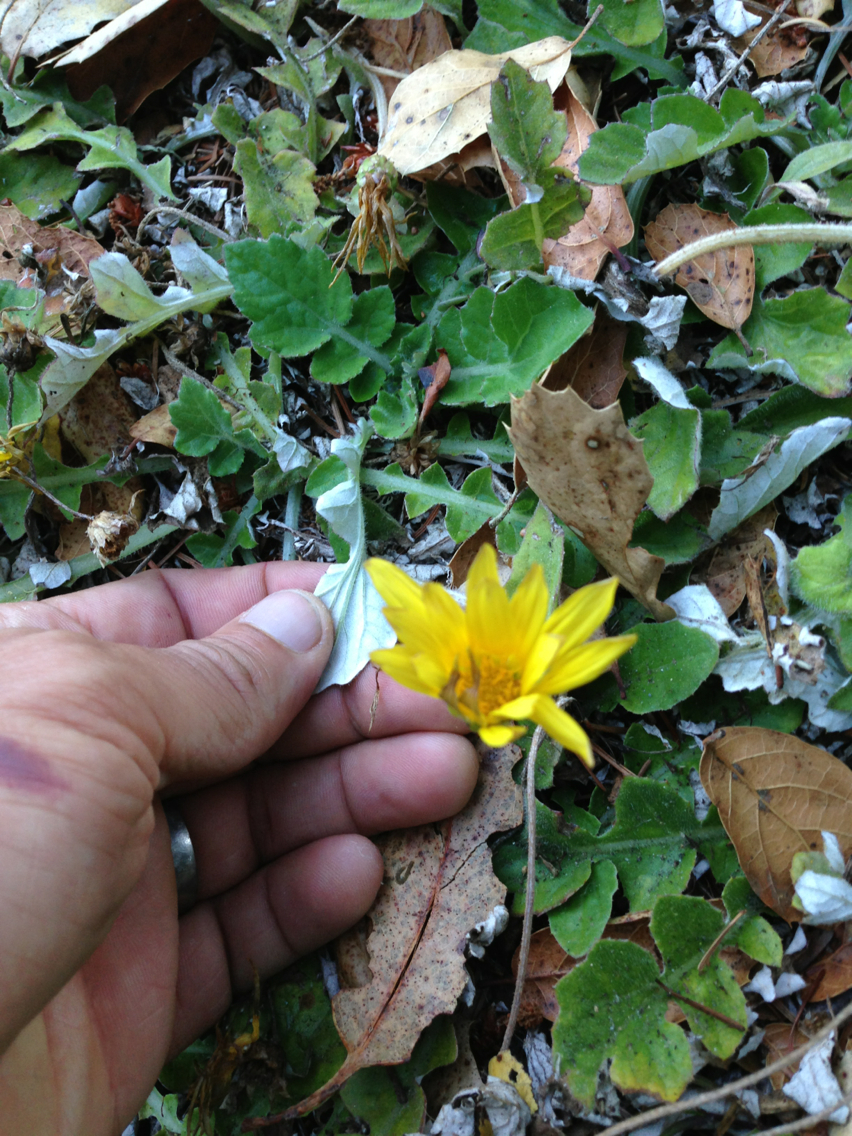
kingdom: Plantae
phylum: Tracheophyta
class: Magnoliopsida
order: Asterales
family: Asteraceae
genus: Arctotheca
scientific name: Arctotheca prostrata
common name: Capeweed
